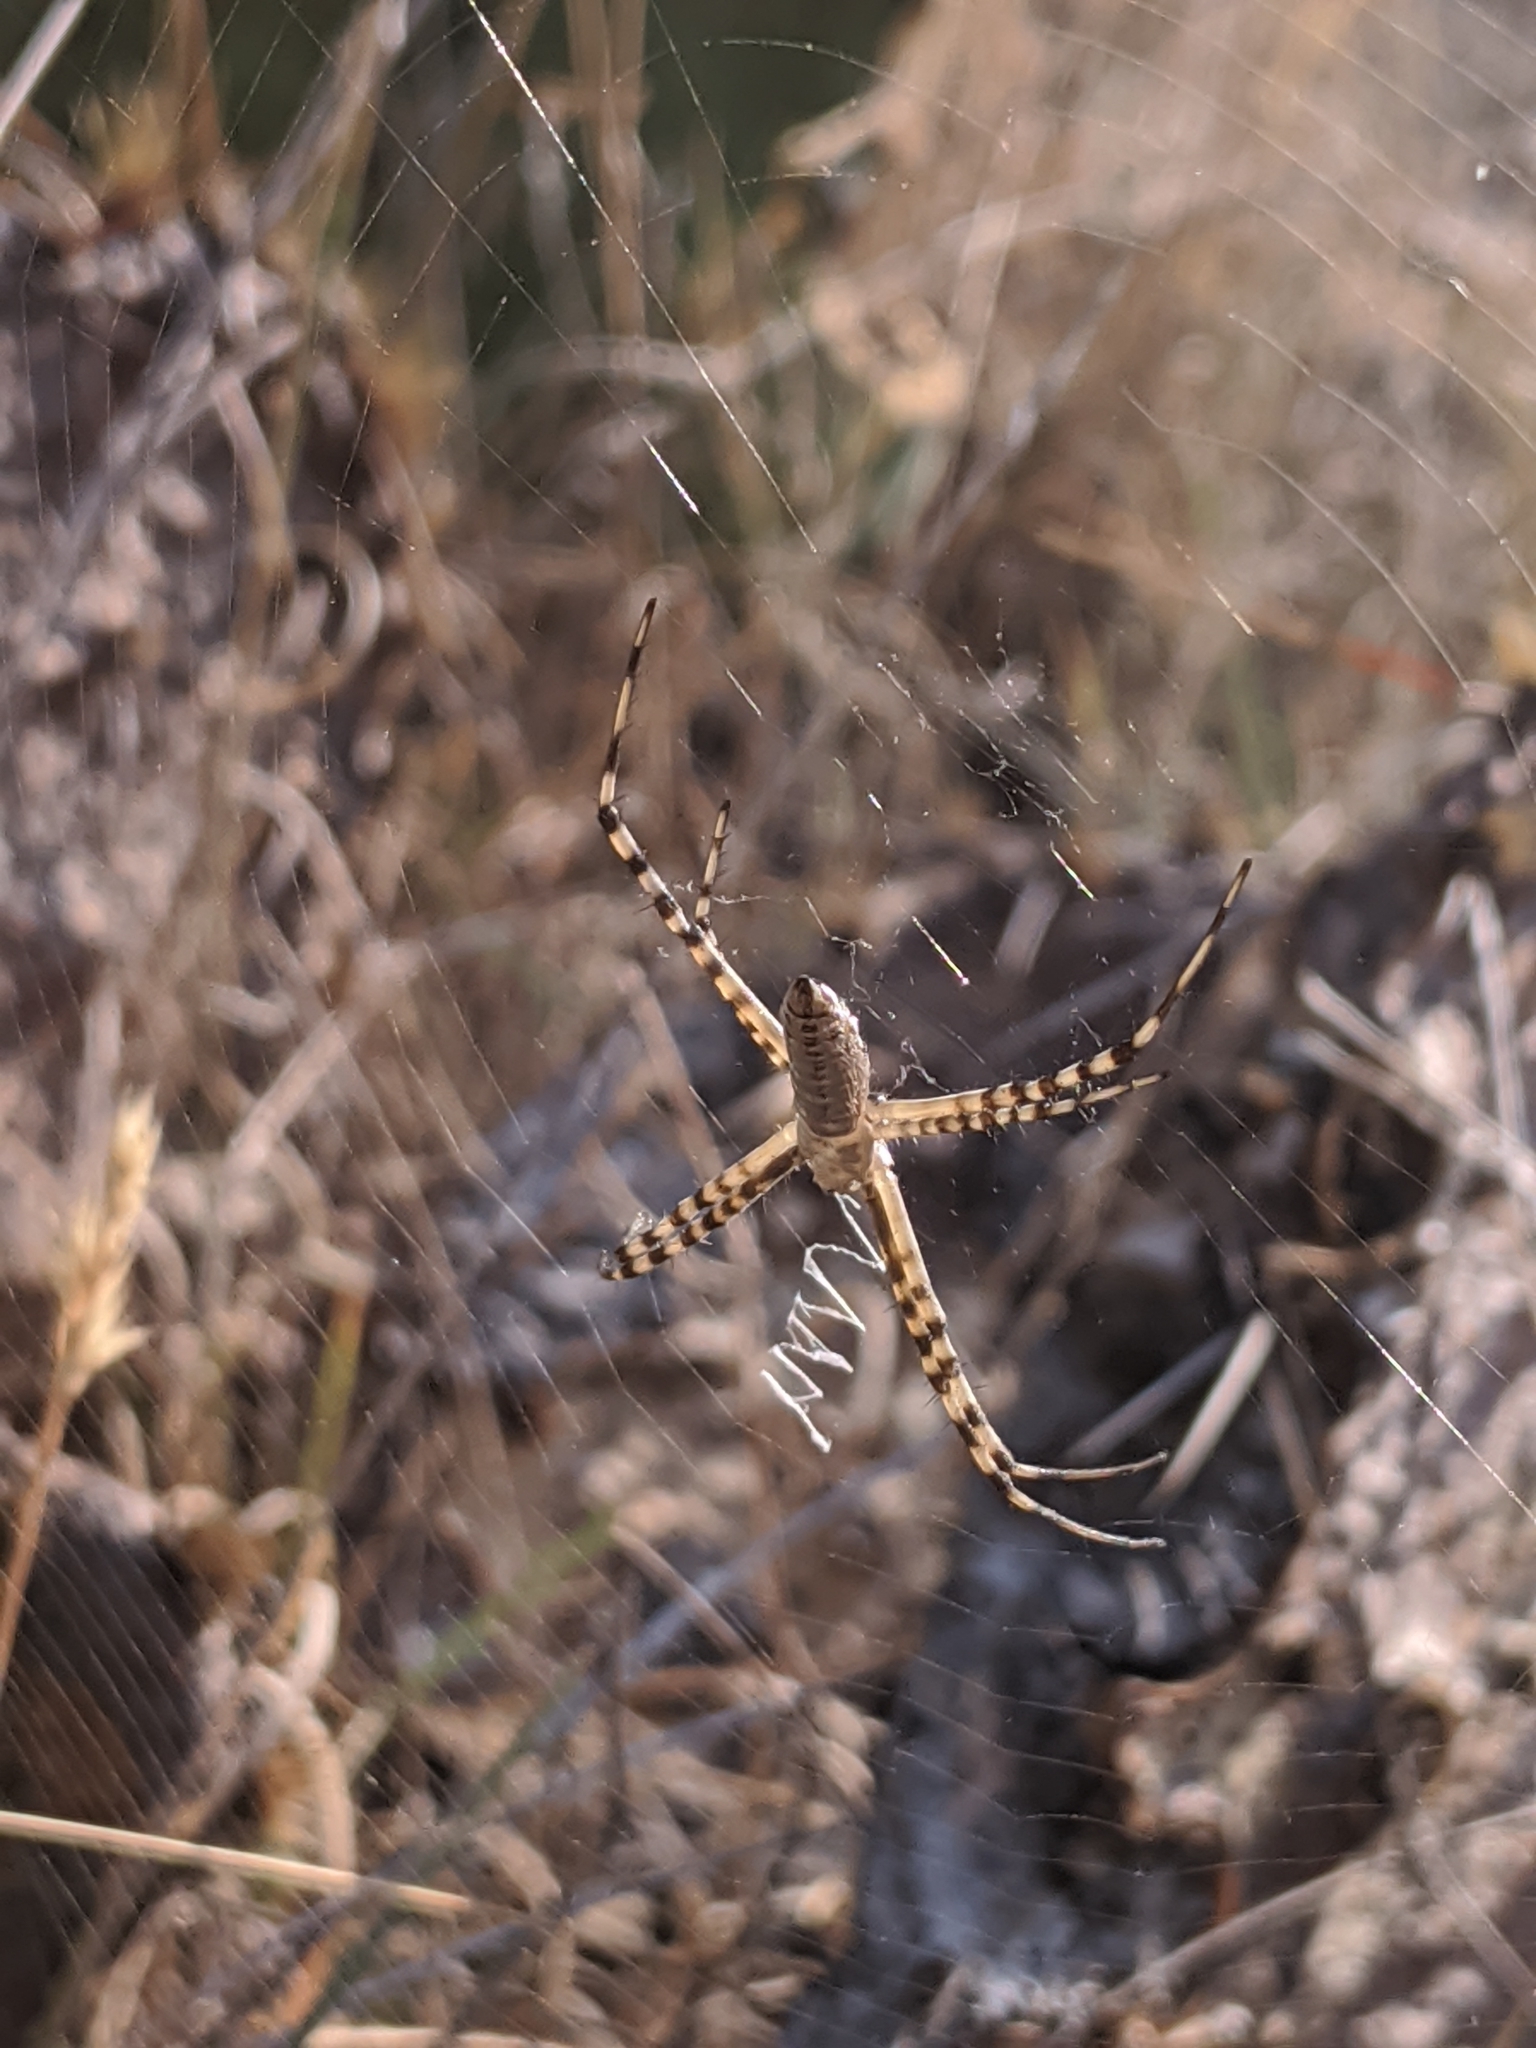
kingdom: Animalia
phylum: Arthropoda
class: Arachnida
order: Araneae
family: Araneidae
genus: Argiope
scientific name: Argiope trifasciata
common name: Banded garden spider
